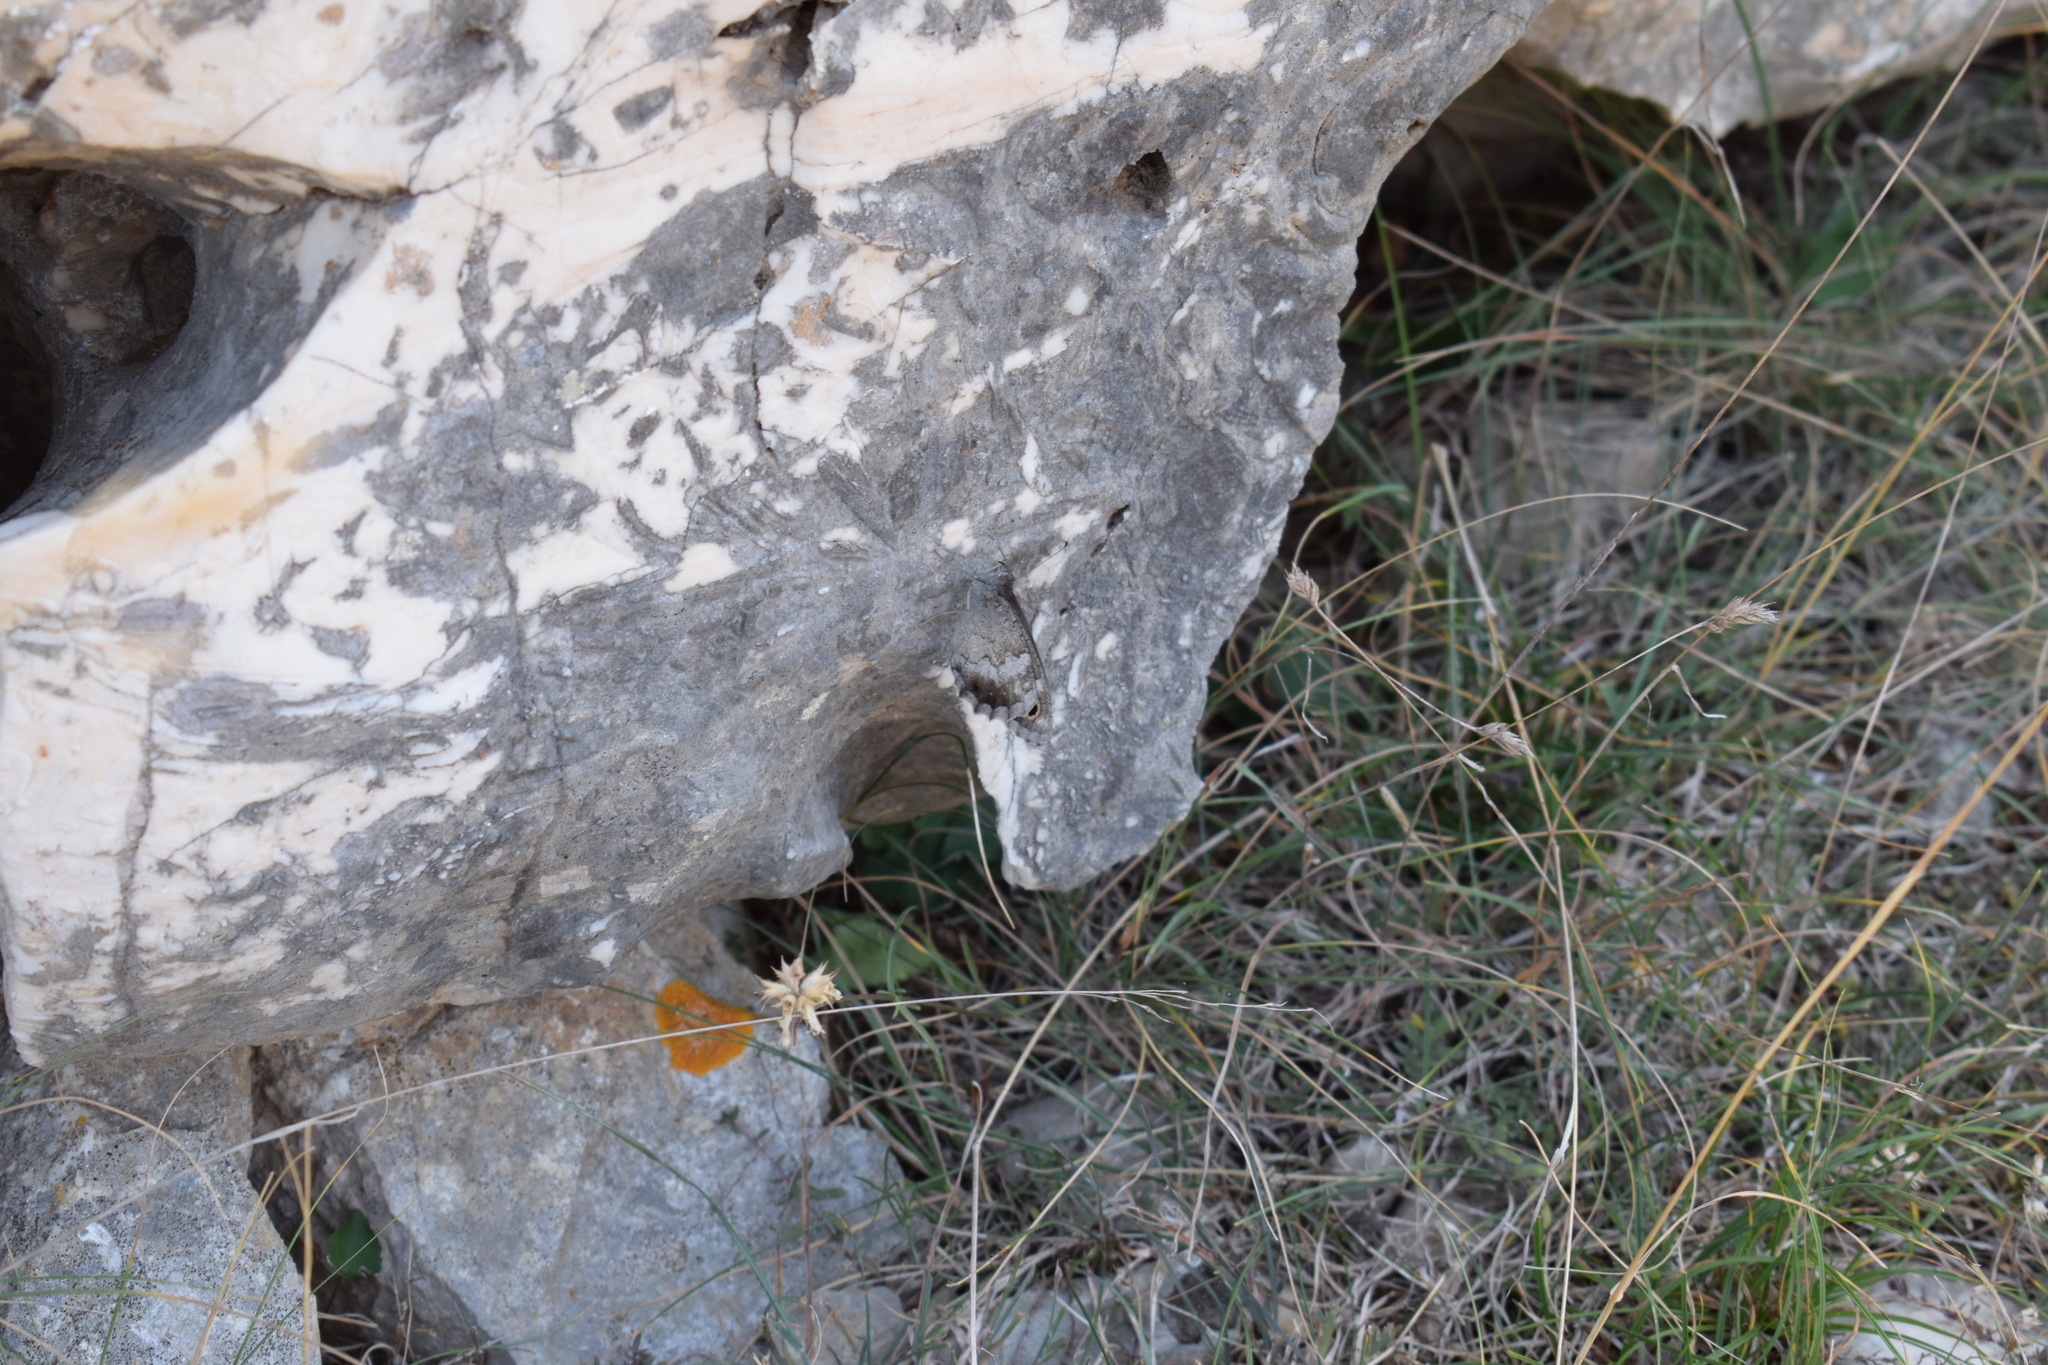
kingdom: Animalia
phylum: Arthropoda
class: Insecta
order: Lepidoptera
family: Nymphalidae
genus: Hipparchia
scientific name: Hipparchia statilinus
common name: Tree grayling
